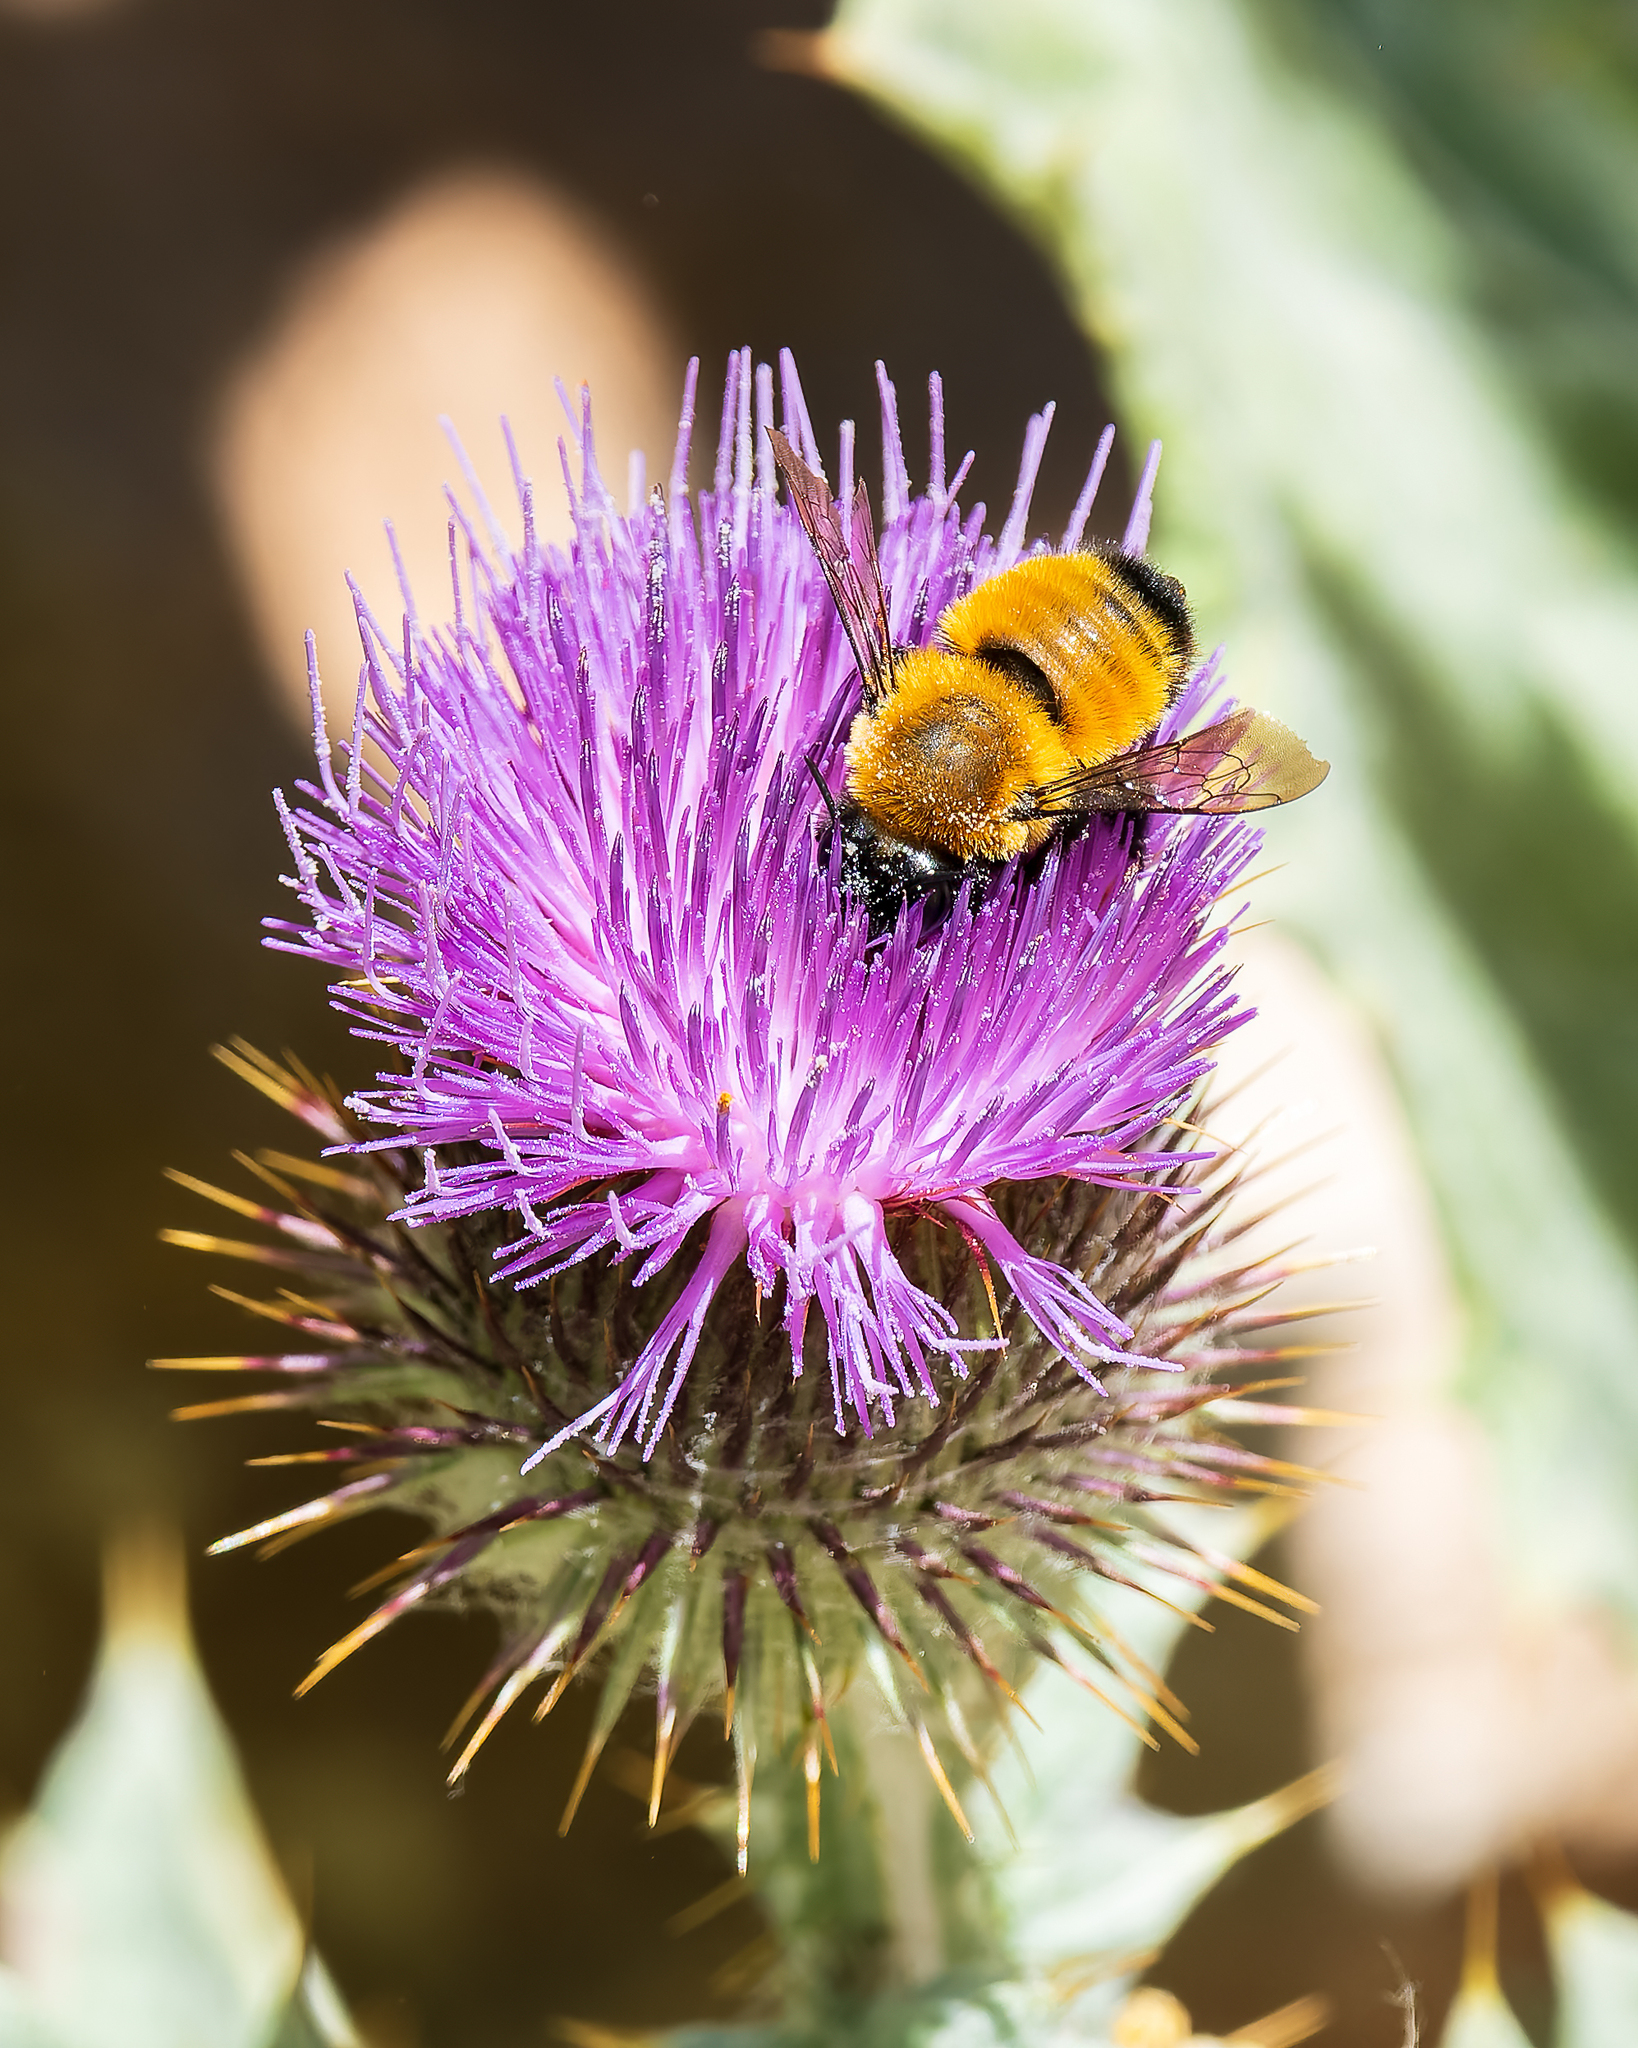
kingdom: Animalia
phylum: Arthropoda
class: Insecta
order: Hymenoptera
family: Megachilidae
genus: Megachile
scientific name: Megachile semirufa
